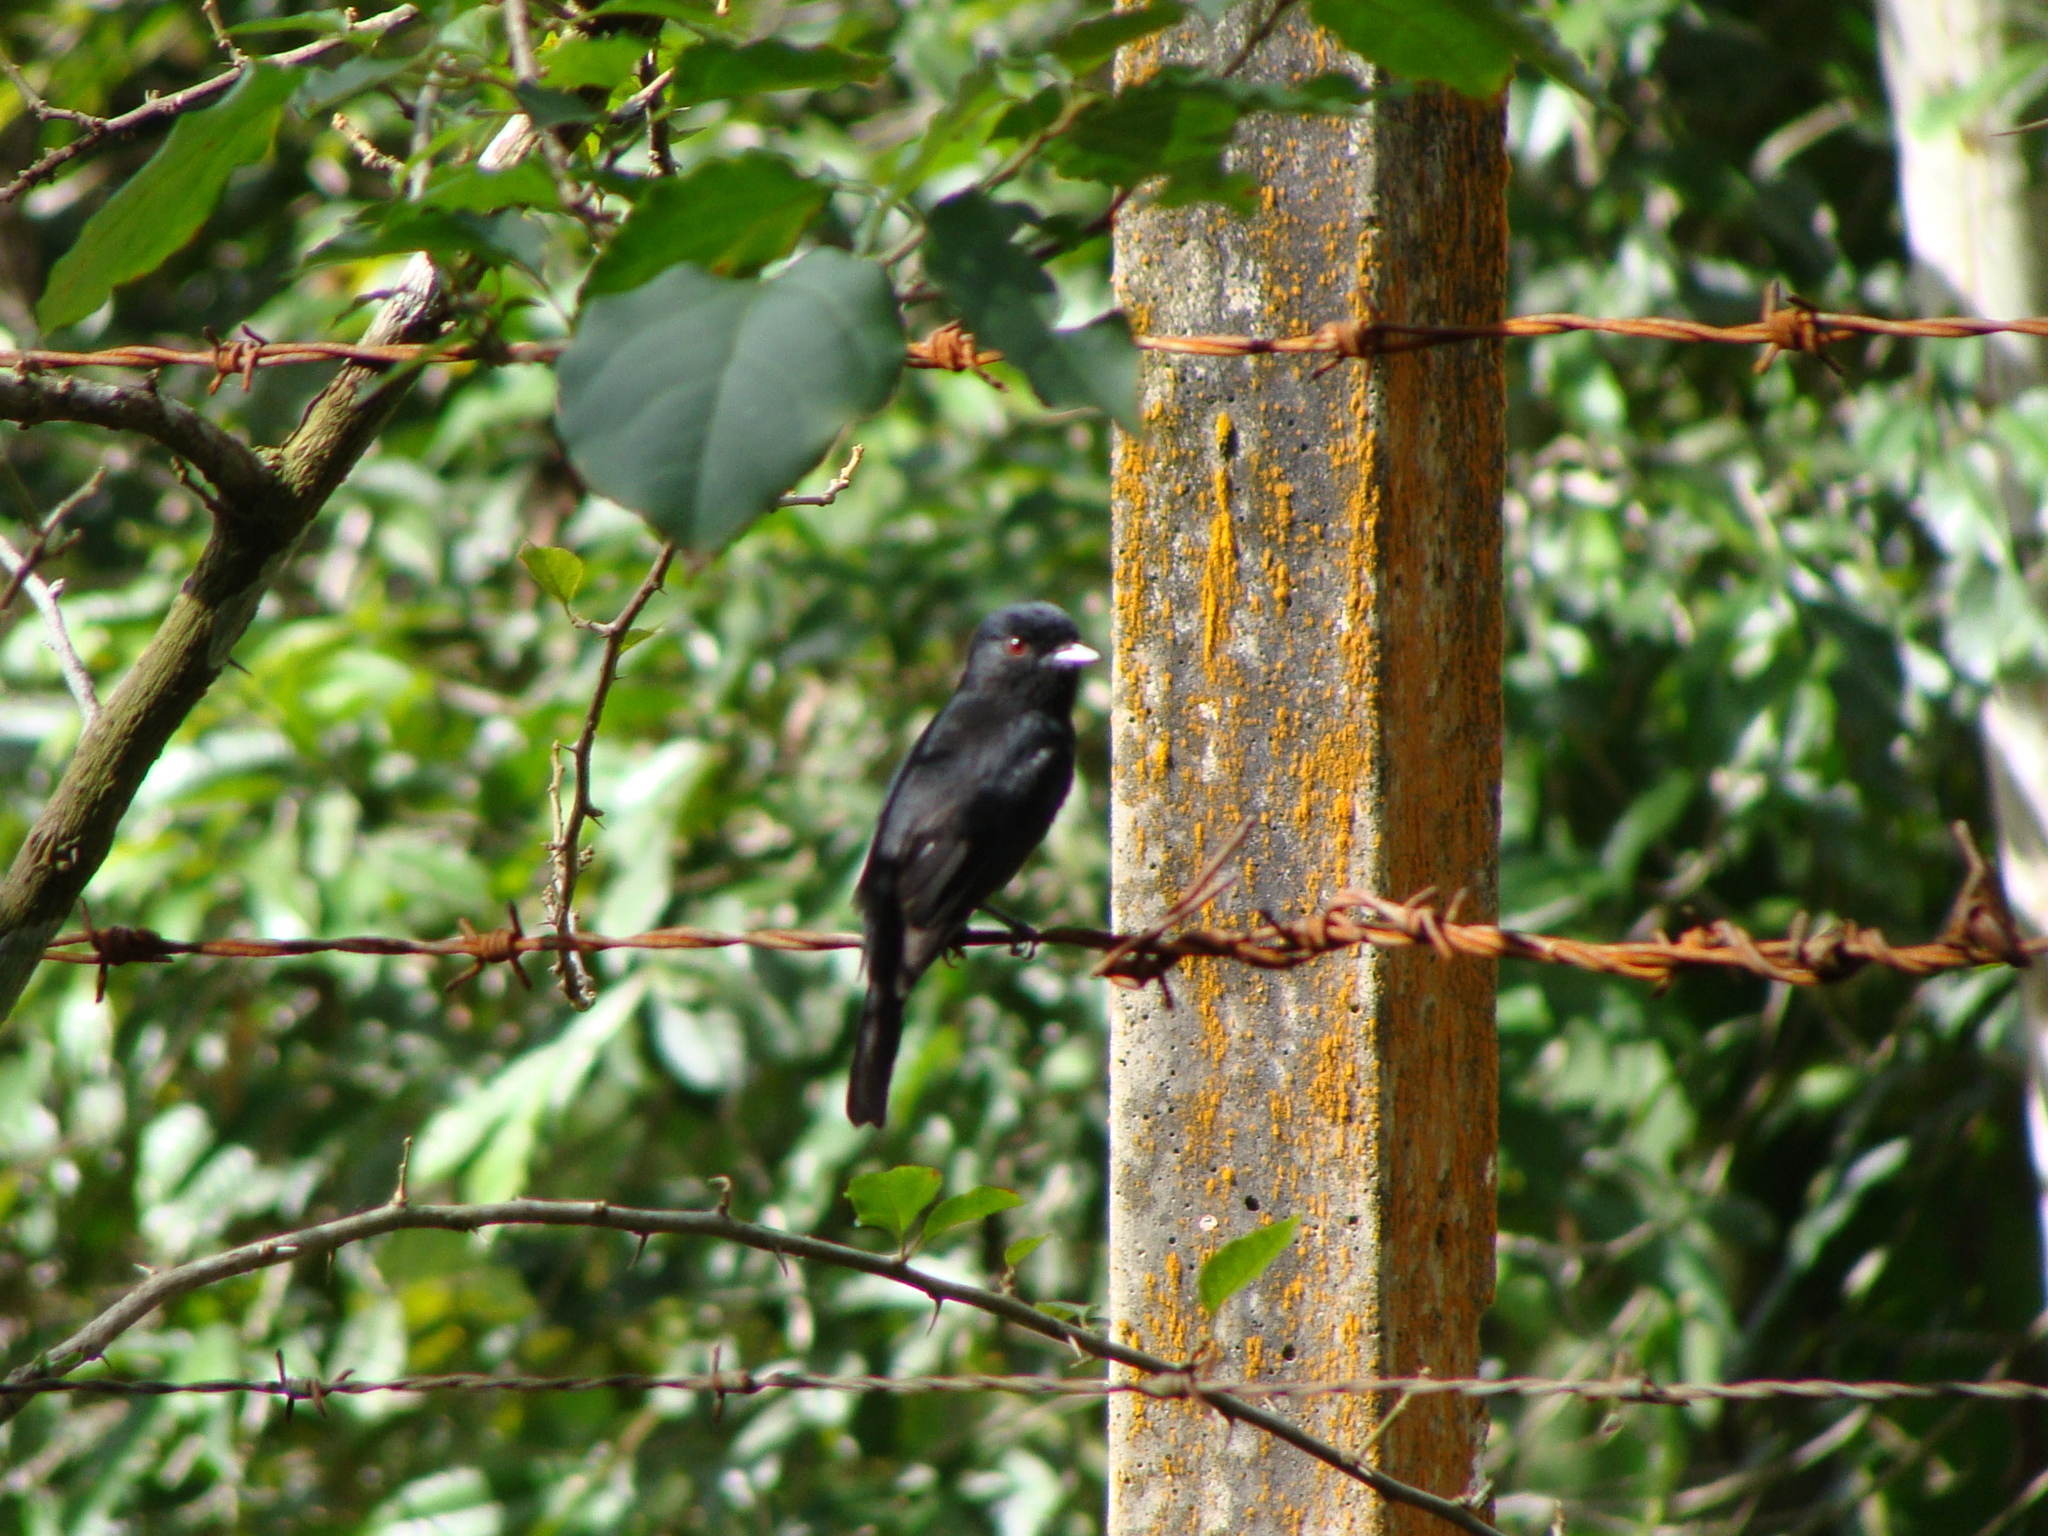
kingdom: Animalia
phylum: Chordata
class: Aves
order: Passeriformes
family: Tyrannidae
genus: Knipolegus
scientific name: Knipolegus cyanirostris
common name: Blue-billed black tyrant
